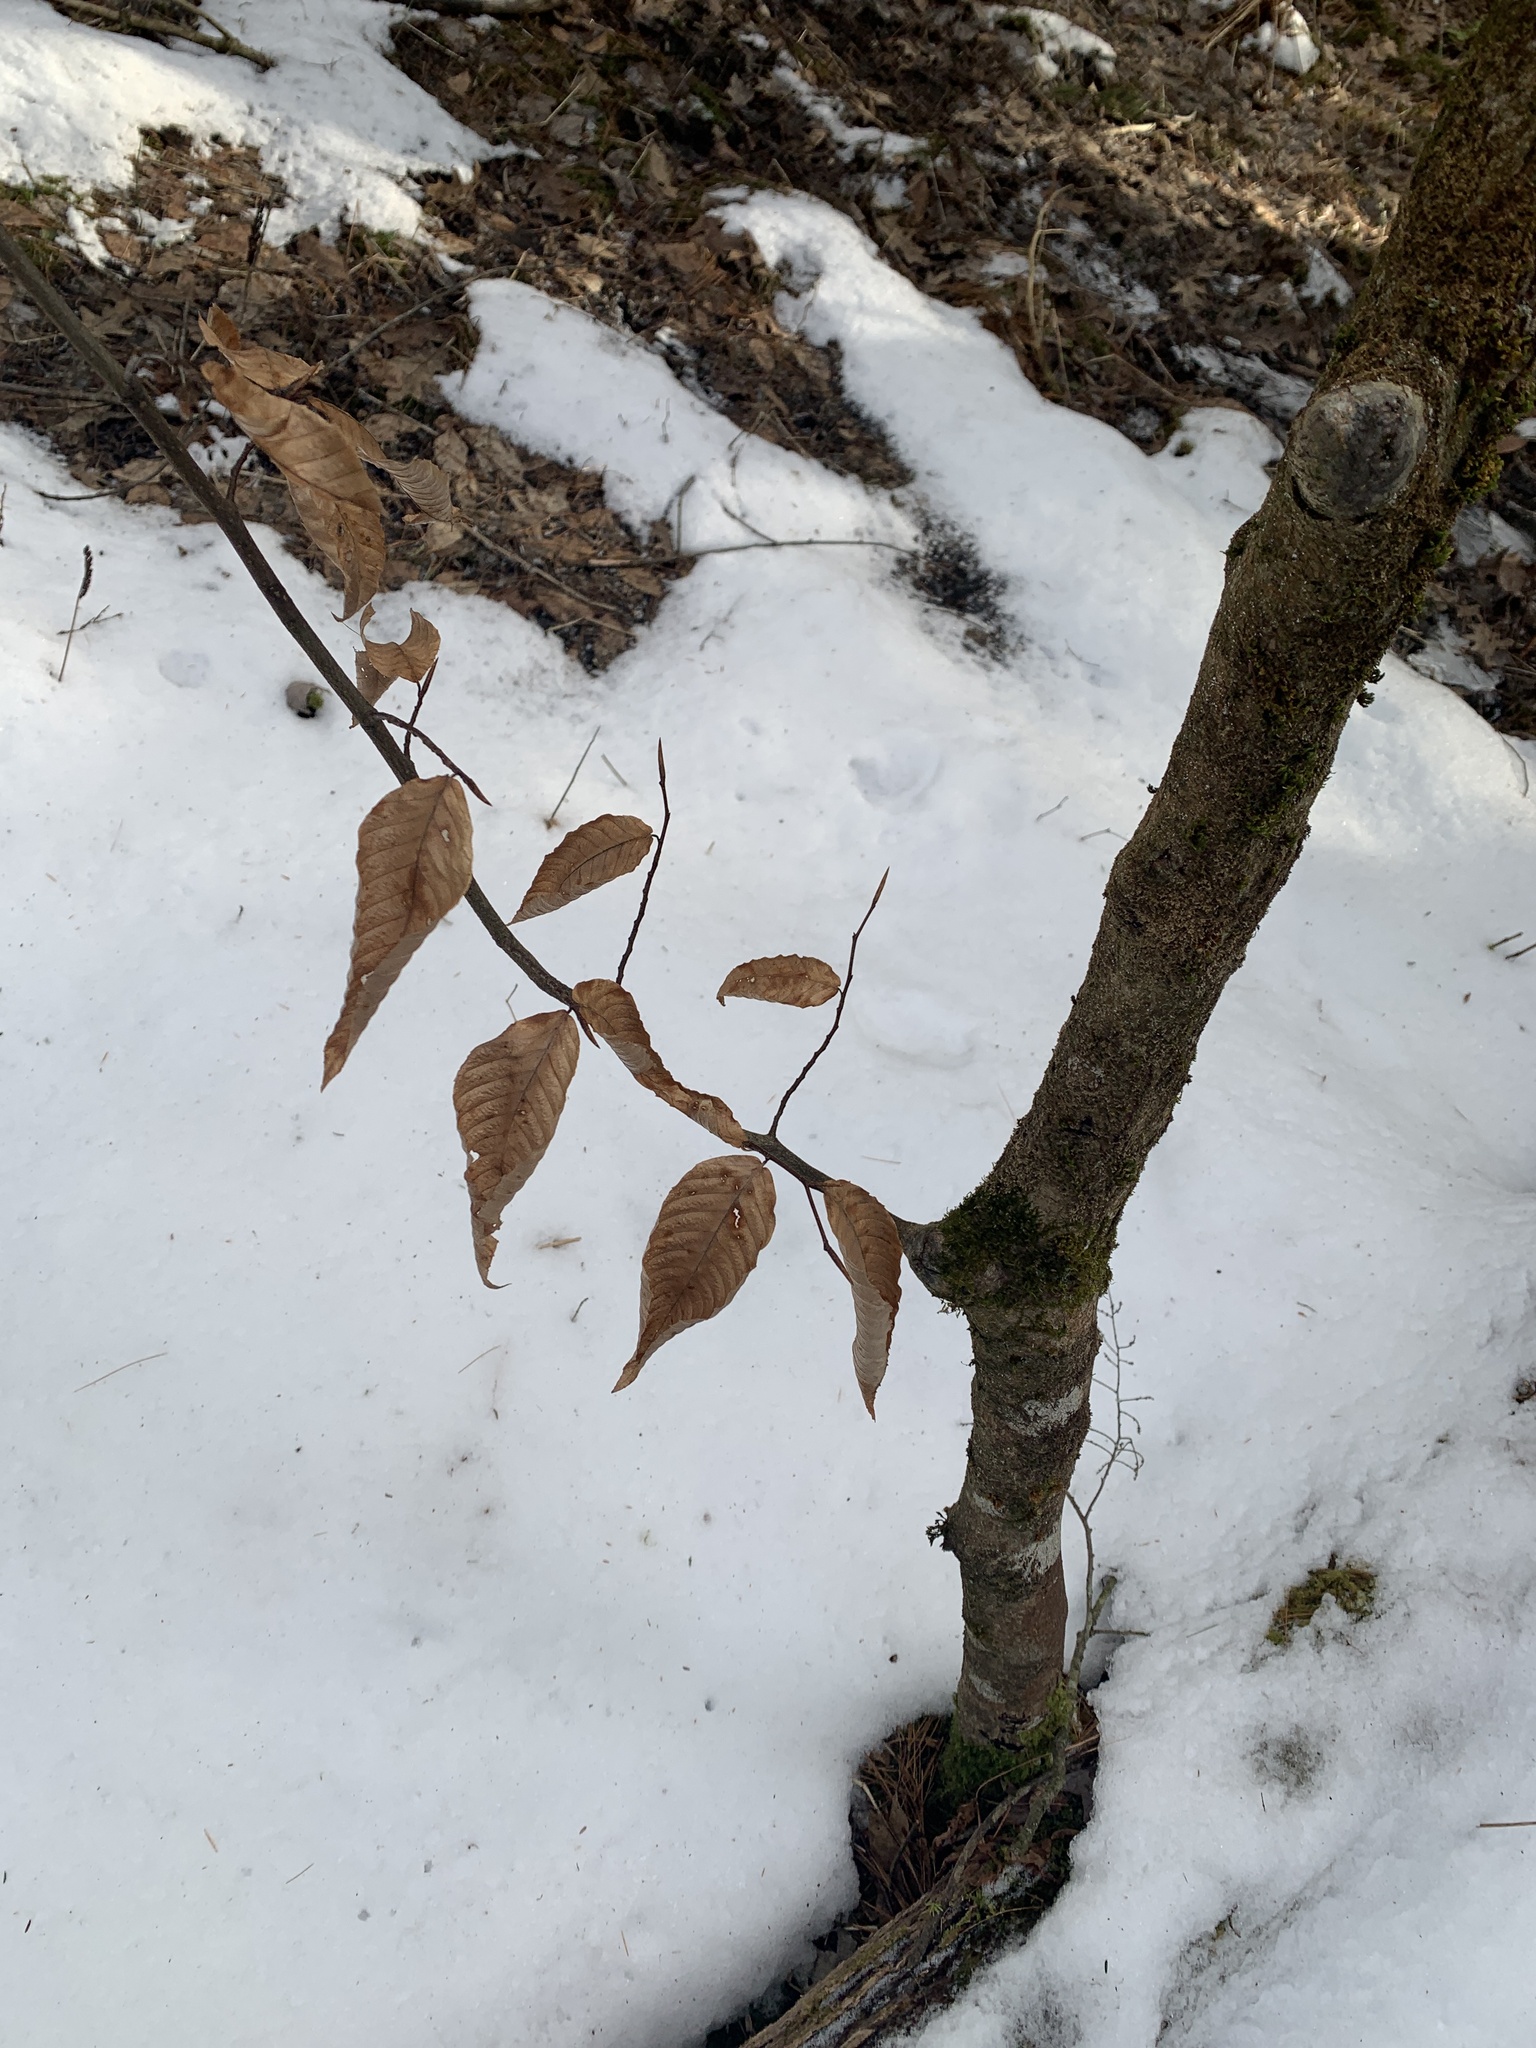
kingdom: Plantae
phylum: Tracheophyta
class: Magnoliopsida
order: Fagales
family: Fagaceae
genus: Fagus
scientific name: Fagus grandifolia
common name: American beech
